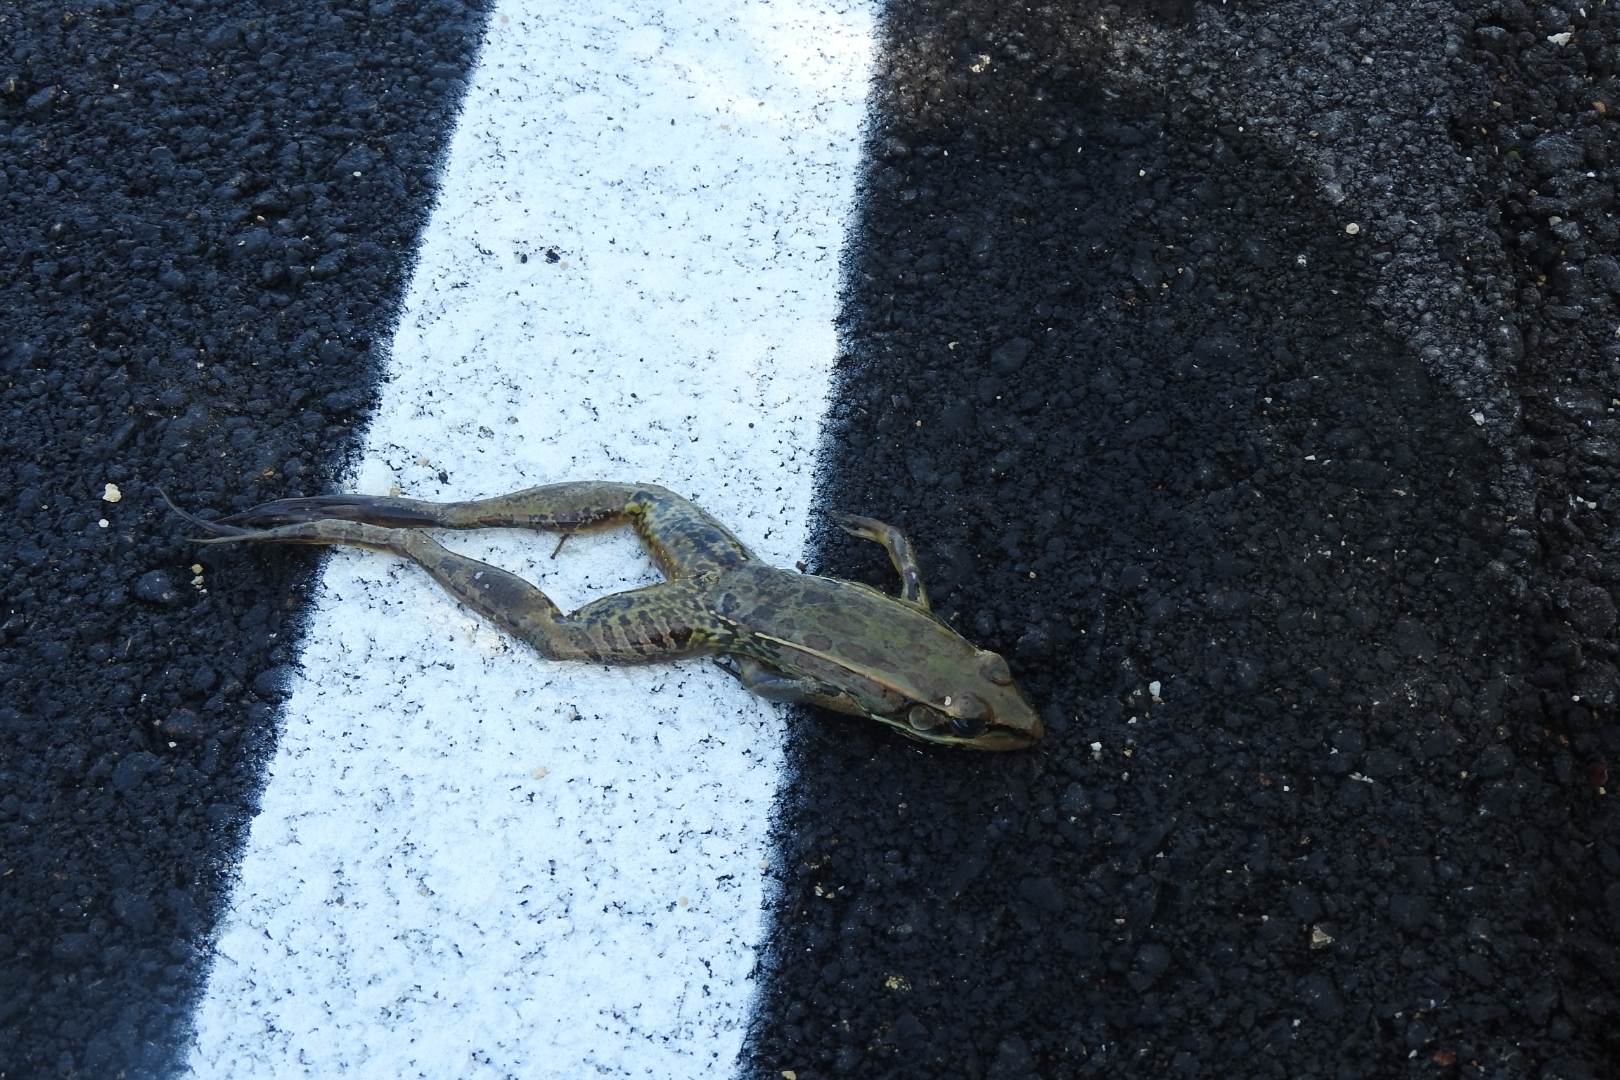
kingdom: Animalia
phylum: Chordata
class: Amphibia
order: Anura
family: Ranidae
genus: Lithobates
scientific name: Lithobates brownorum
